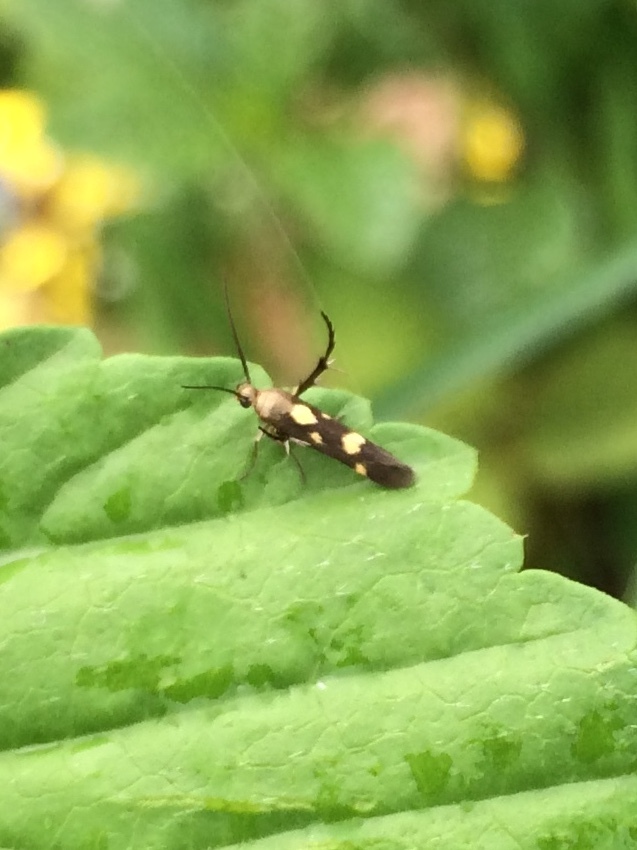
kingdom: Animalia
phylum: Arthropoda
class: Insecta
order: Lepidoptera
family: Scythrididae
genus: Eretmocera
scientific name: Eretmocera impactella
